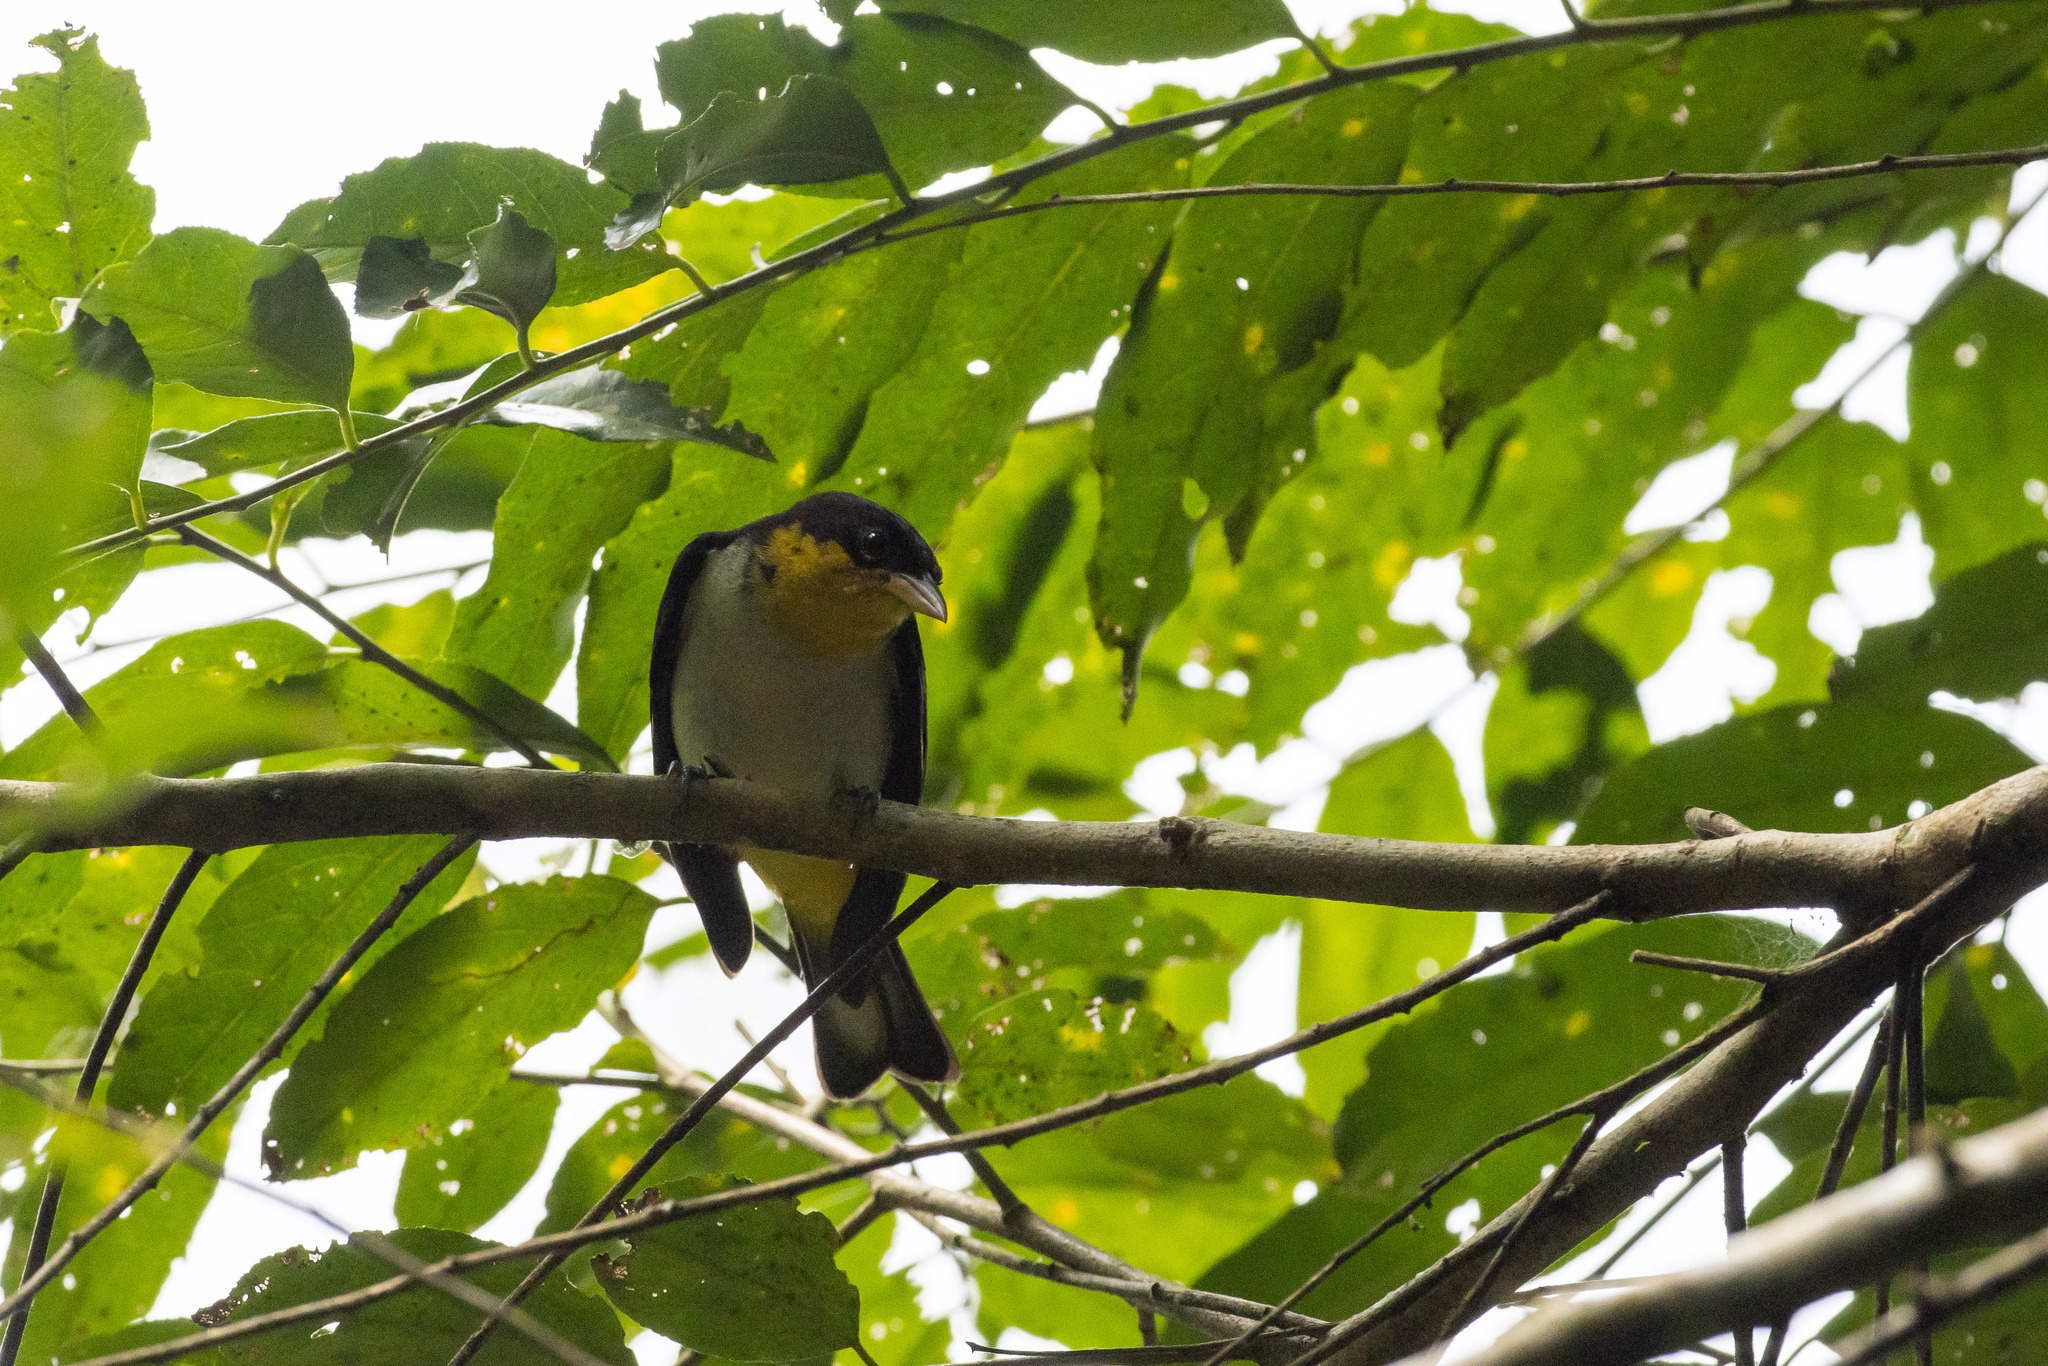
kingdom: Animalia
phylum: Chordata
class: Aves
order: Passeriformes
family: Thraupidae
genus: Hemithraupis
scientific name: Hemithraupis flavicollis
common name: Yellow-backed tanager
